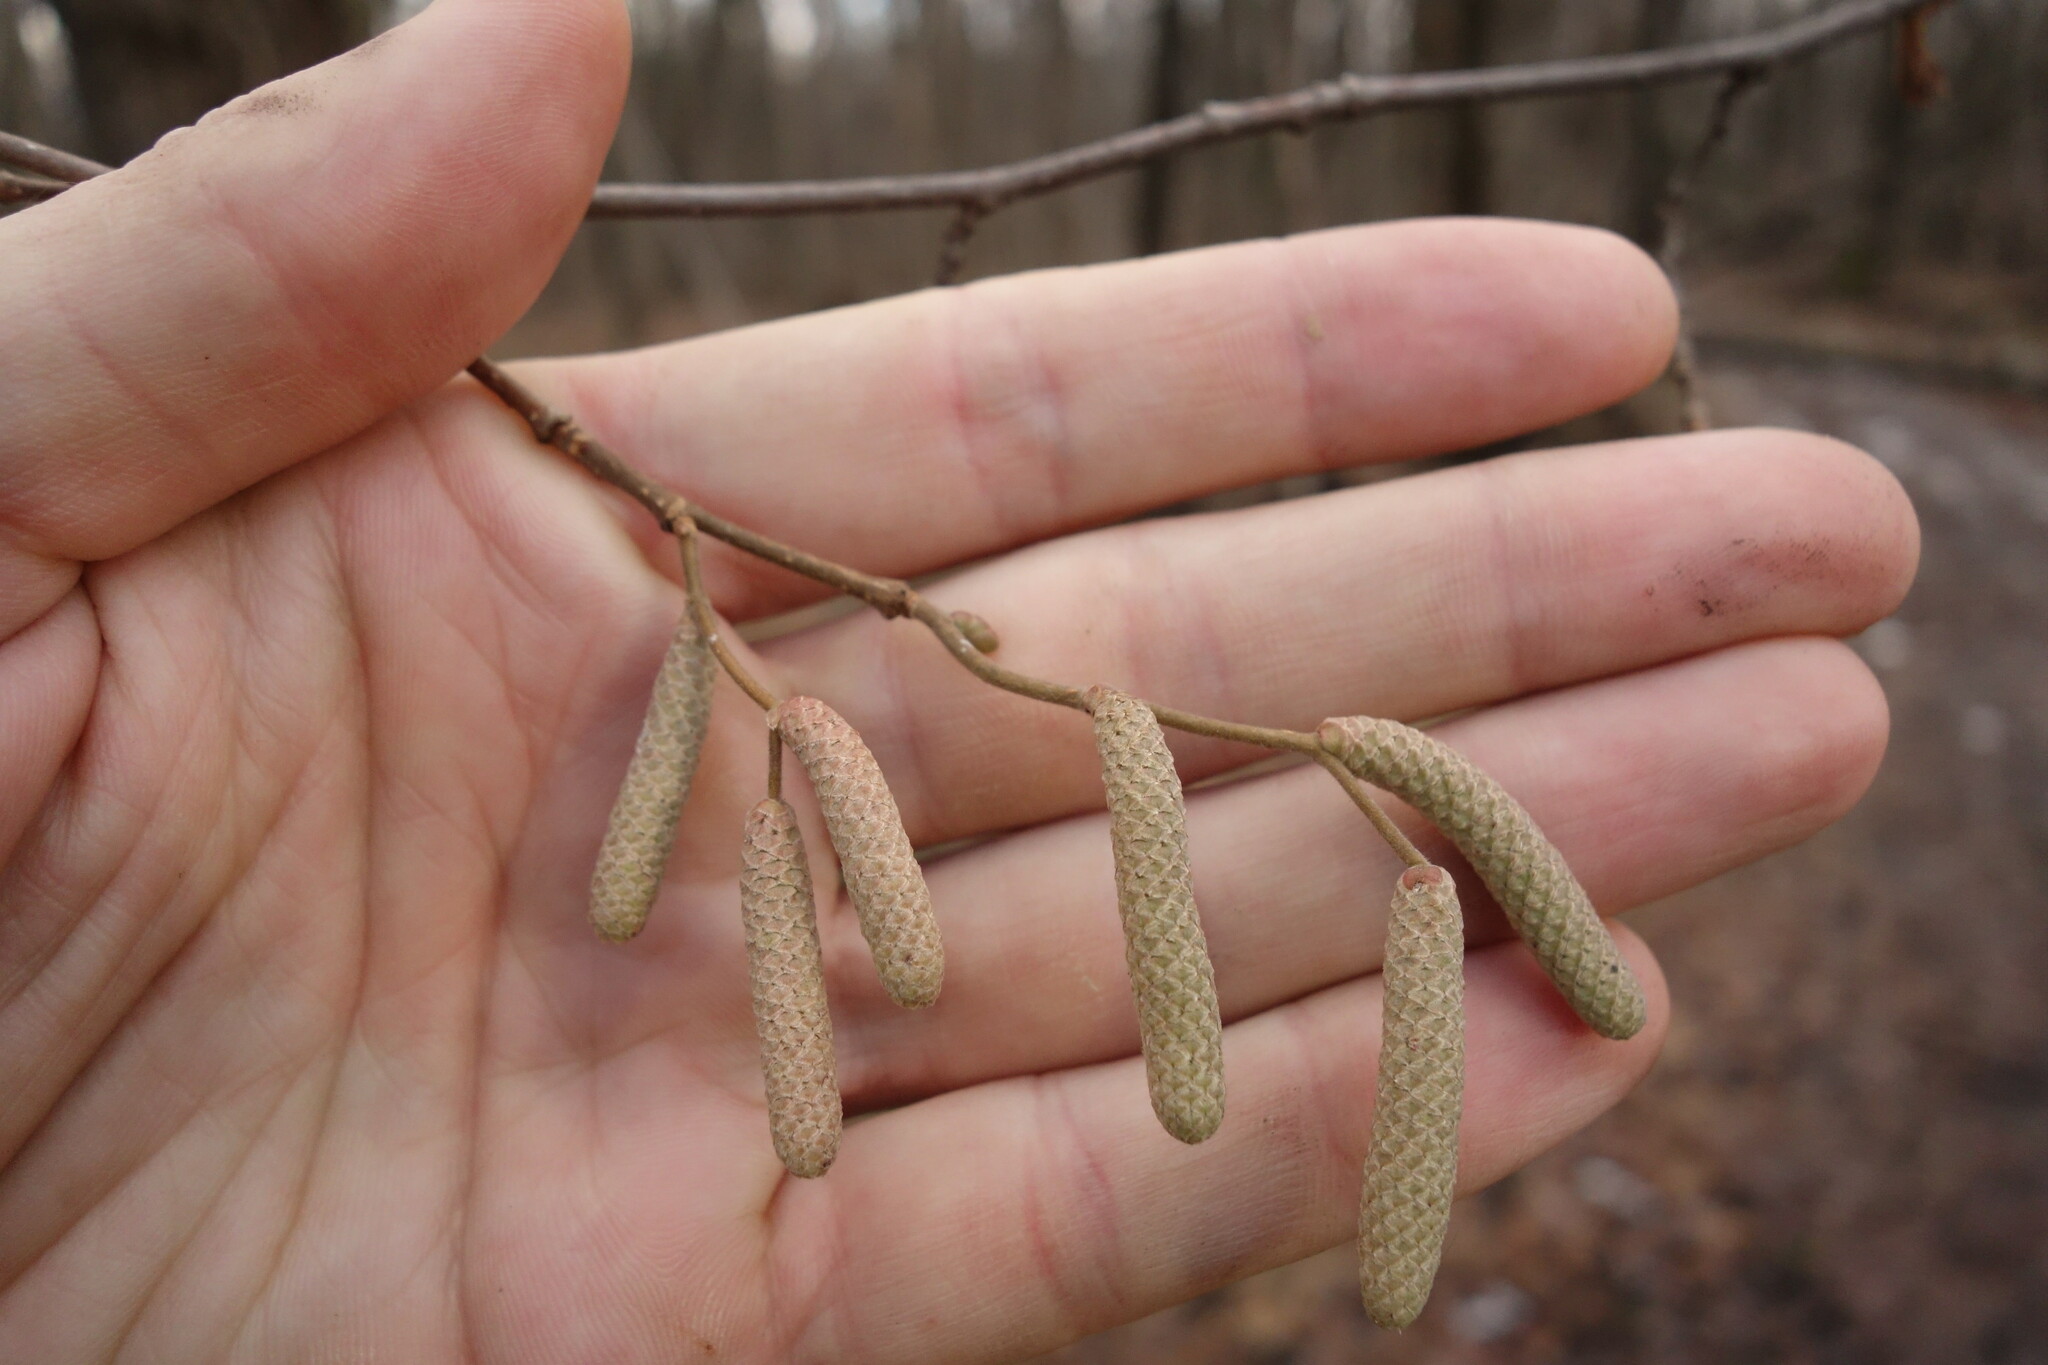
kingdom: Plantae
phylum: Tracheophyta
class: Magnoliopsida
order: Fagales
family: Betulaceae
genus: Corylus
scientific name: Corylus avellana
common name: European hazel
